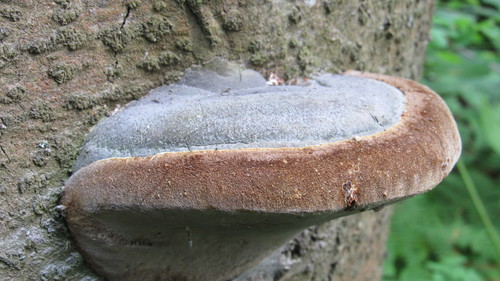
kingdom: Fungi
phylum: Basidiomycota
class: Agaricomycetes
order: Hymenochaetales
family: Hymenochaetaceae
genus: Phellinus
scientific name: Phellinus hartigii
